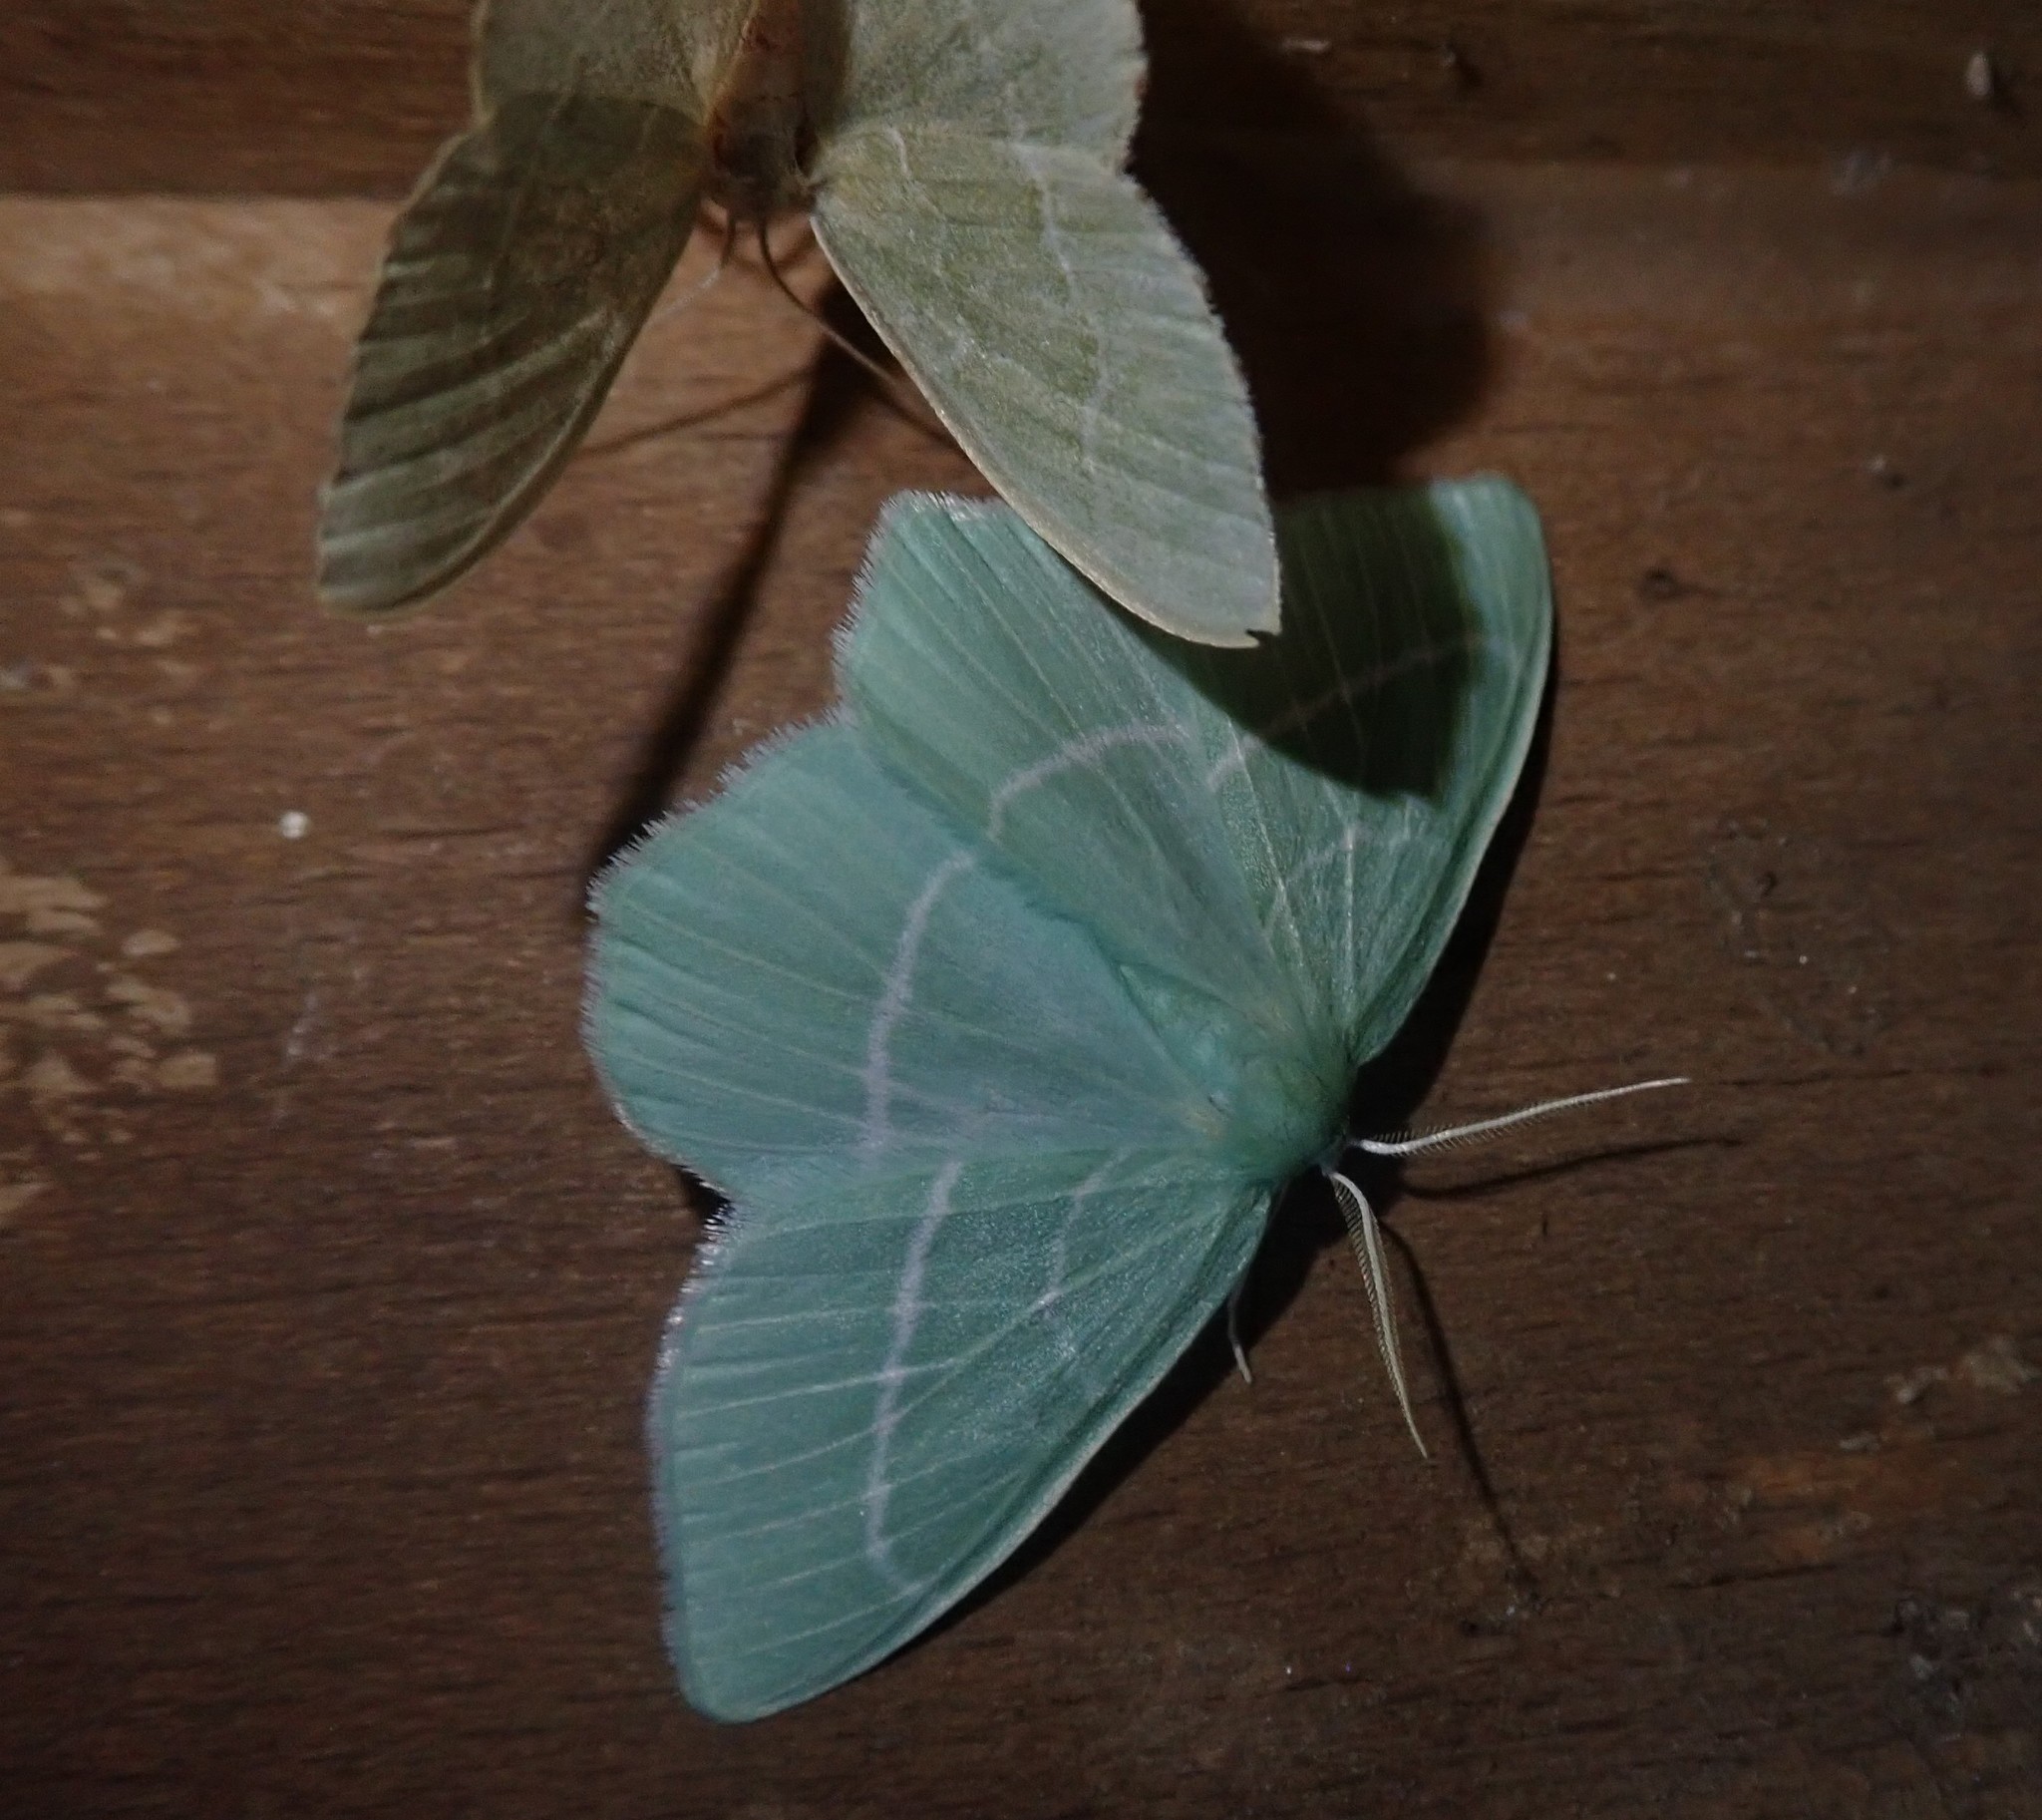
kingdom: Animalia
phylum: Arthropoda
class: Insecta
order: Lepidoptera
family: Geometridae
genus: Hemistola
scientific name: Hemistola chrysoprasaria
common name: Small emerald
